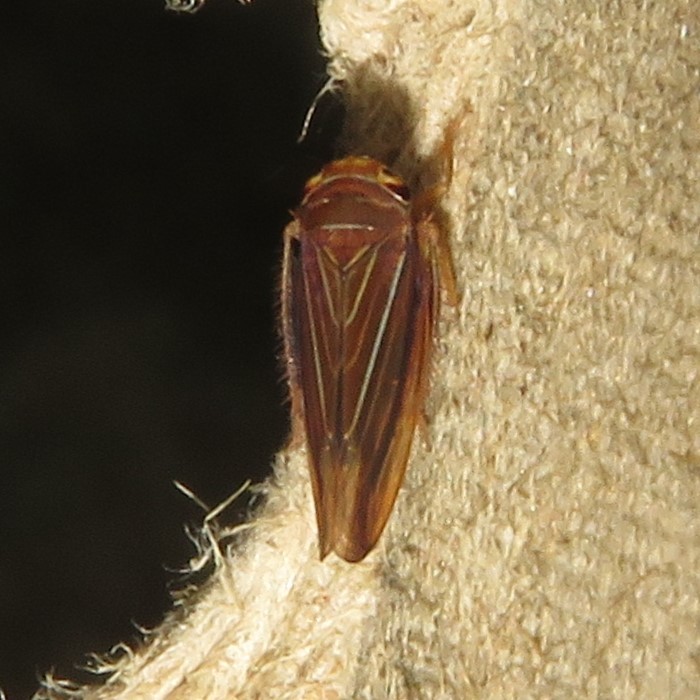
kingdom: Animalia
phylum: Arthropoda
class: Insecta
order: Hemiptera
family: Cicadellidae
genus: Idiodonus
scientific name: Idiodonus kennicotti
